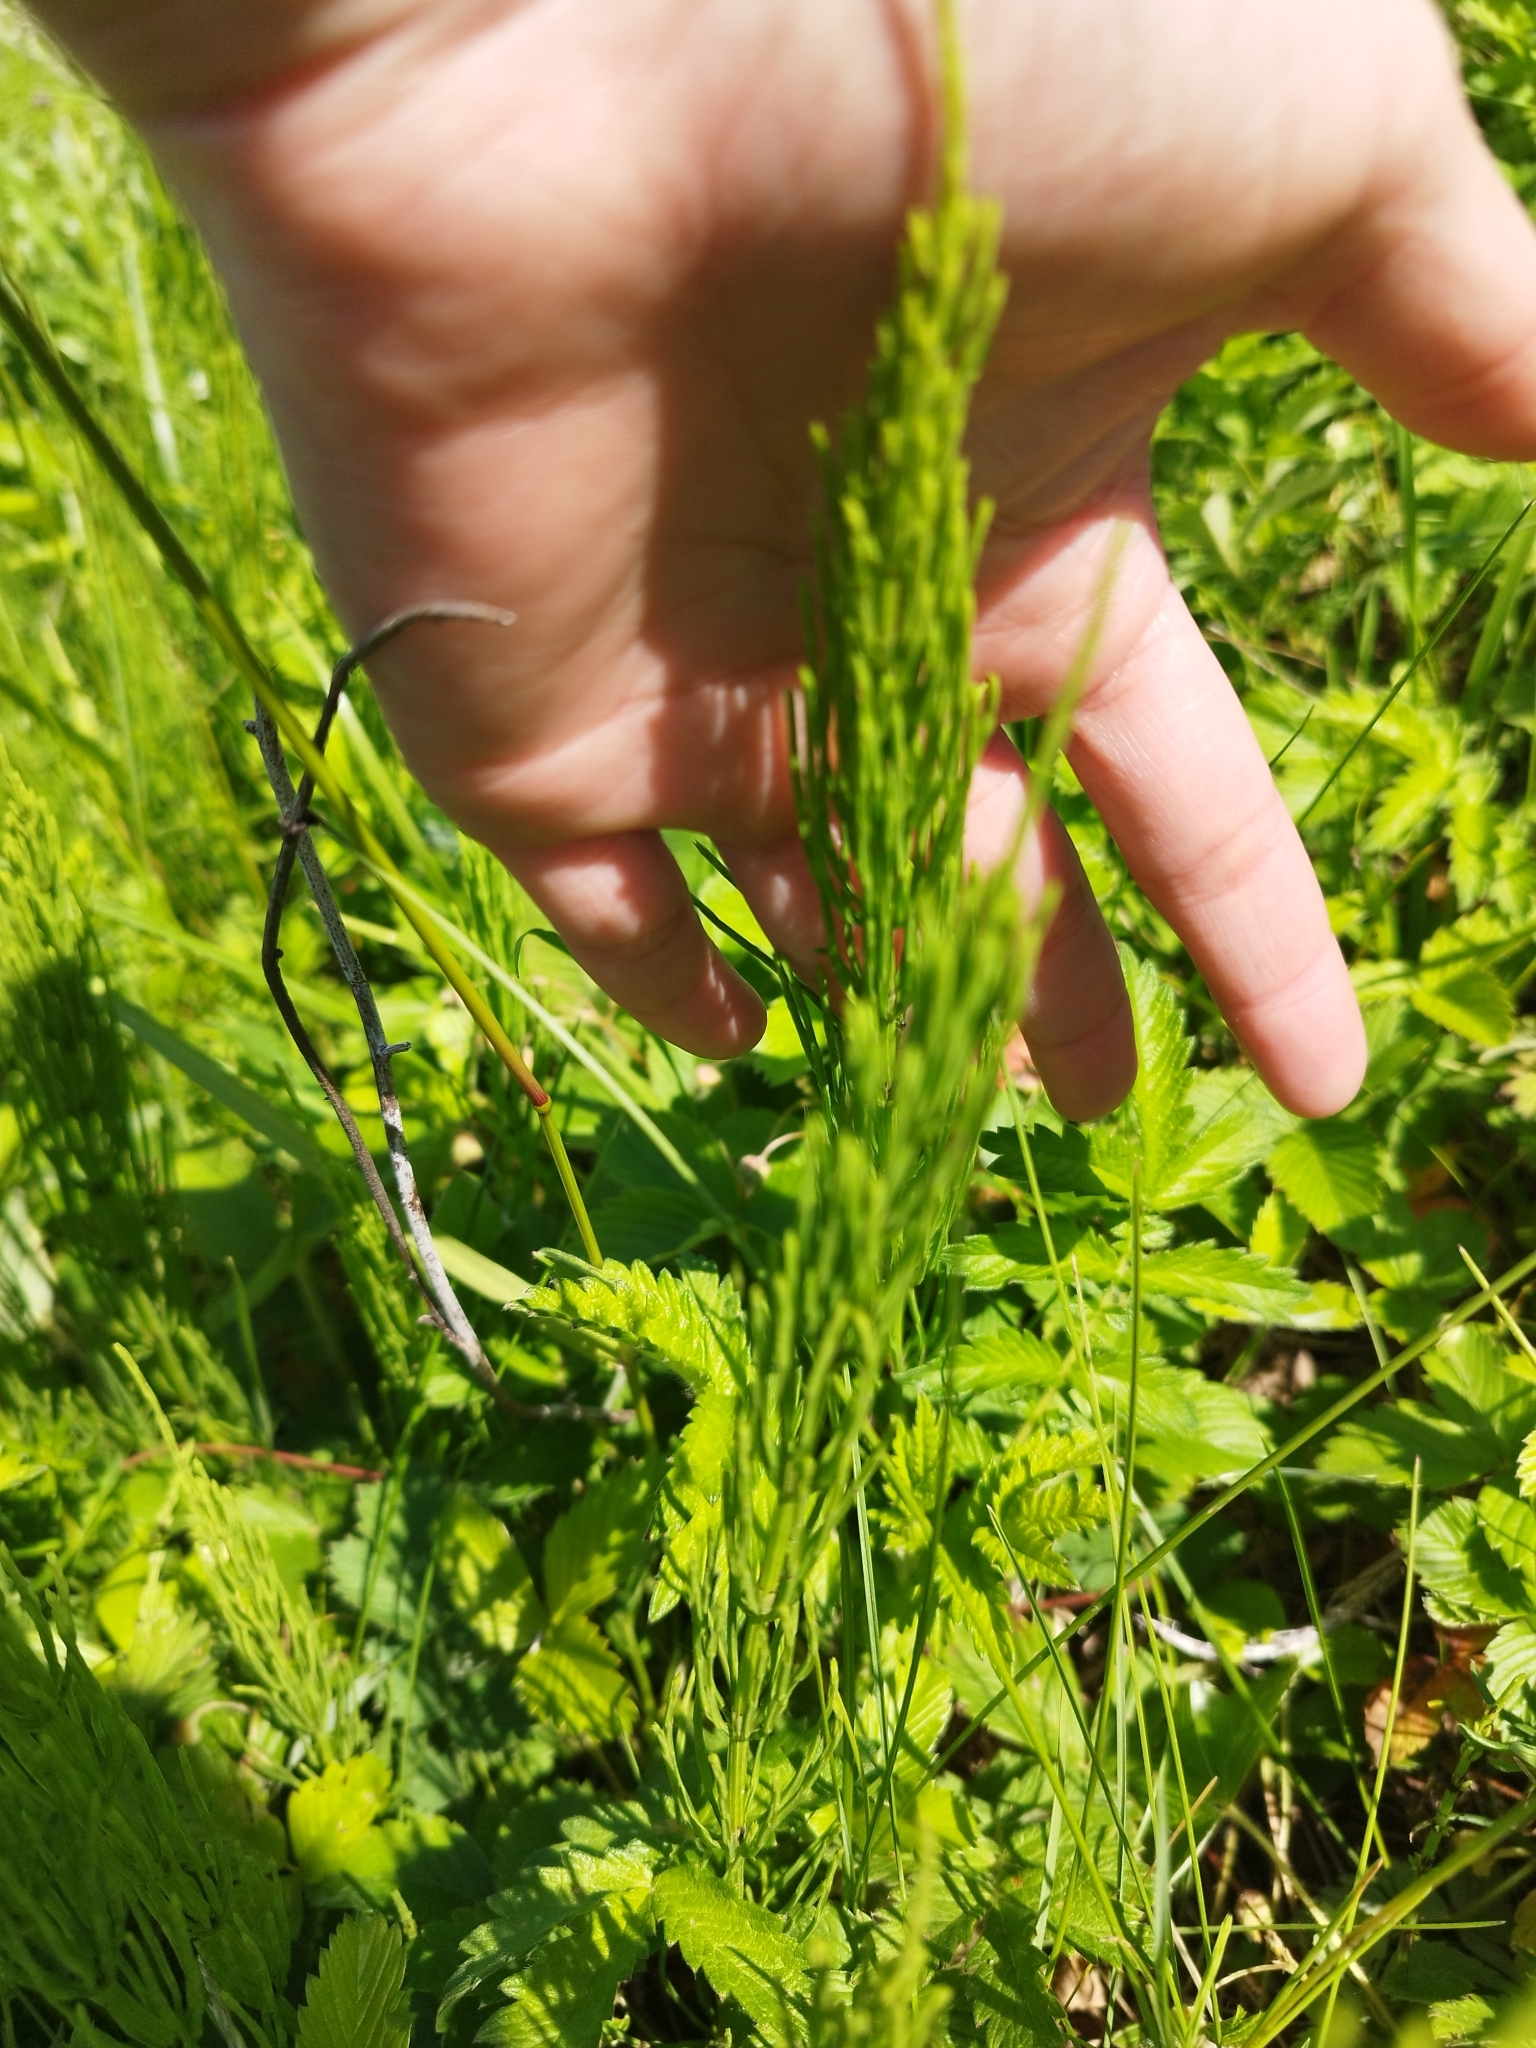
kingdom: Plantae
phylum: Tracheophyta
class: Polypodiopsida
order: Equisetales
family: Equisetaceae
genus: Equisetum
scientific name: Equisetum arvense
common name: Field horsetail
